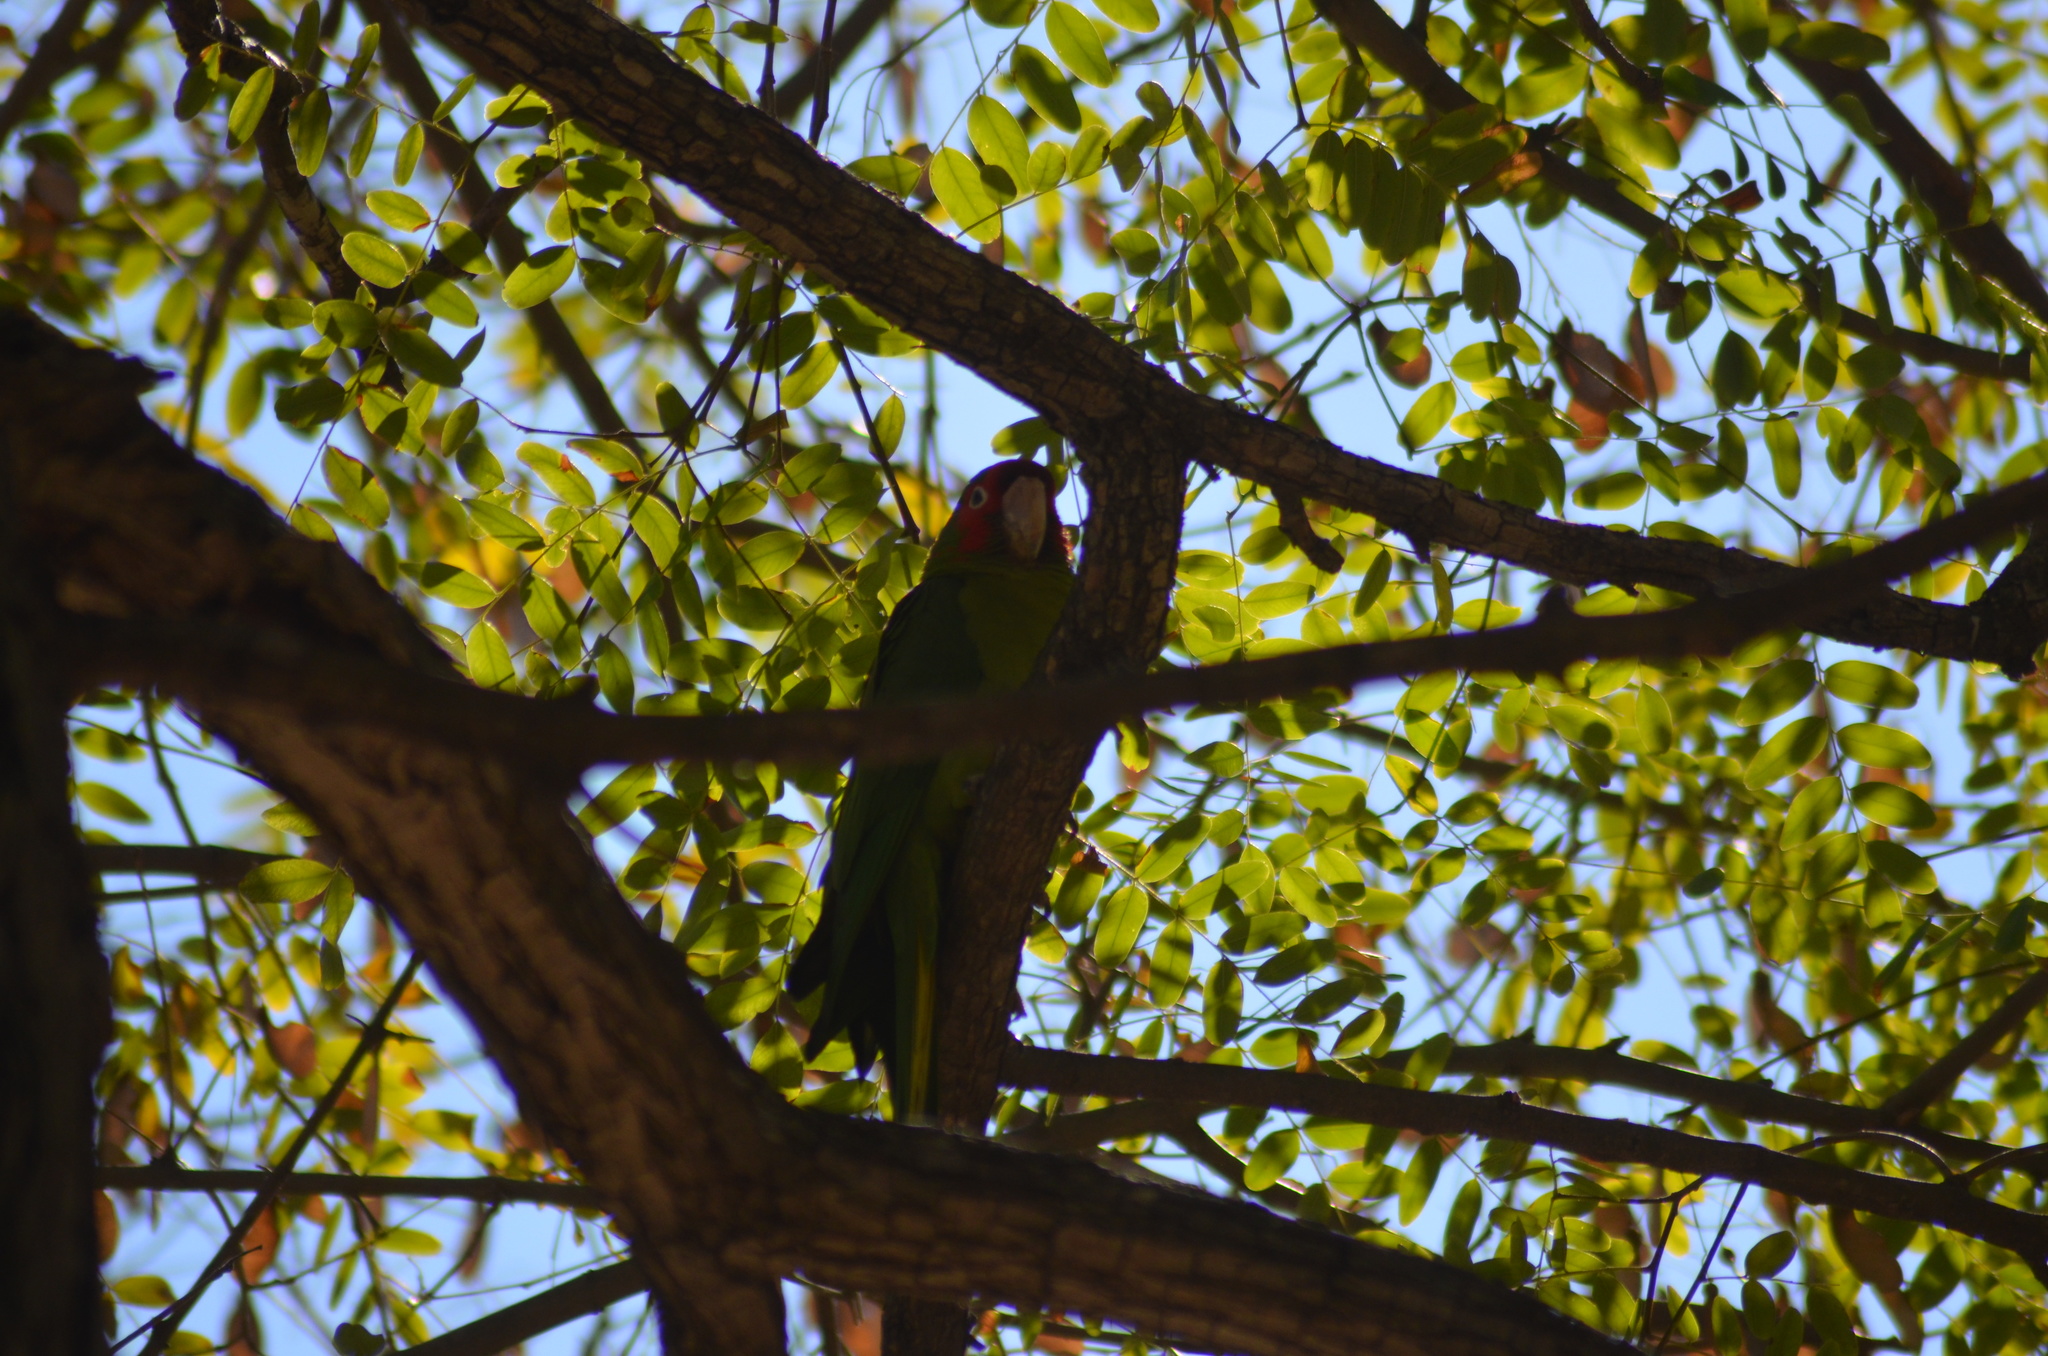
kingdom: Animalia
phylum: Chordata
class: Aves
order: Psittaciformes
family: Psittacidae
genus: Aratinga
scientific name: Aratinga mitrata
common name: Mitred parakeet
